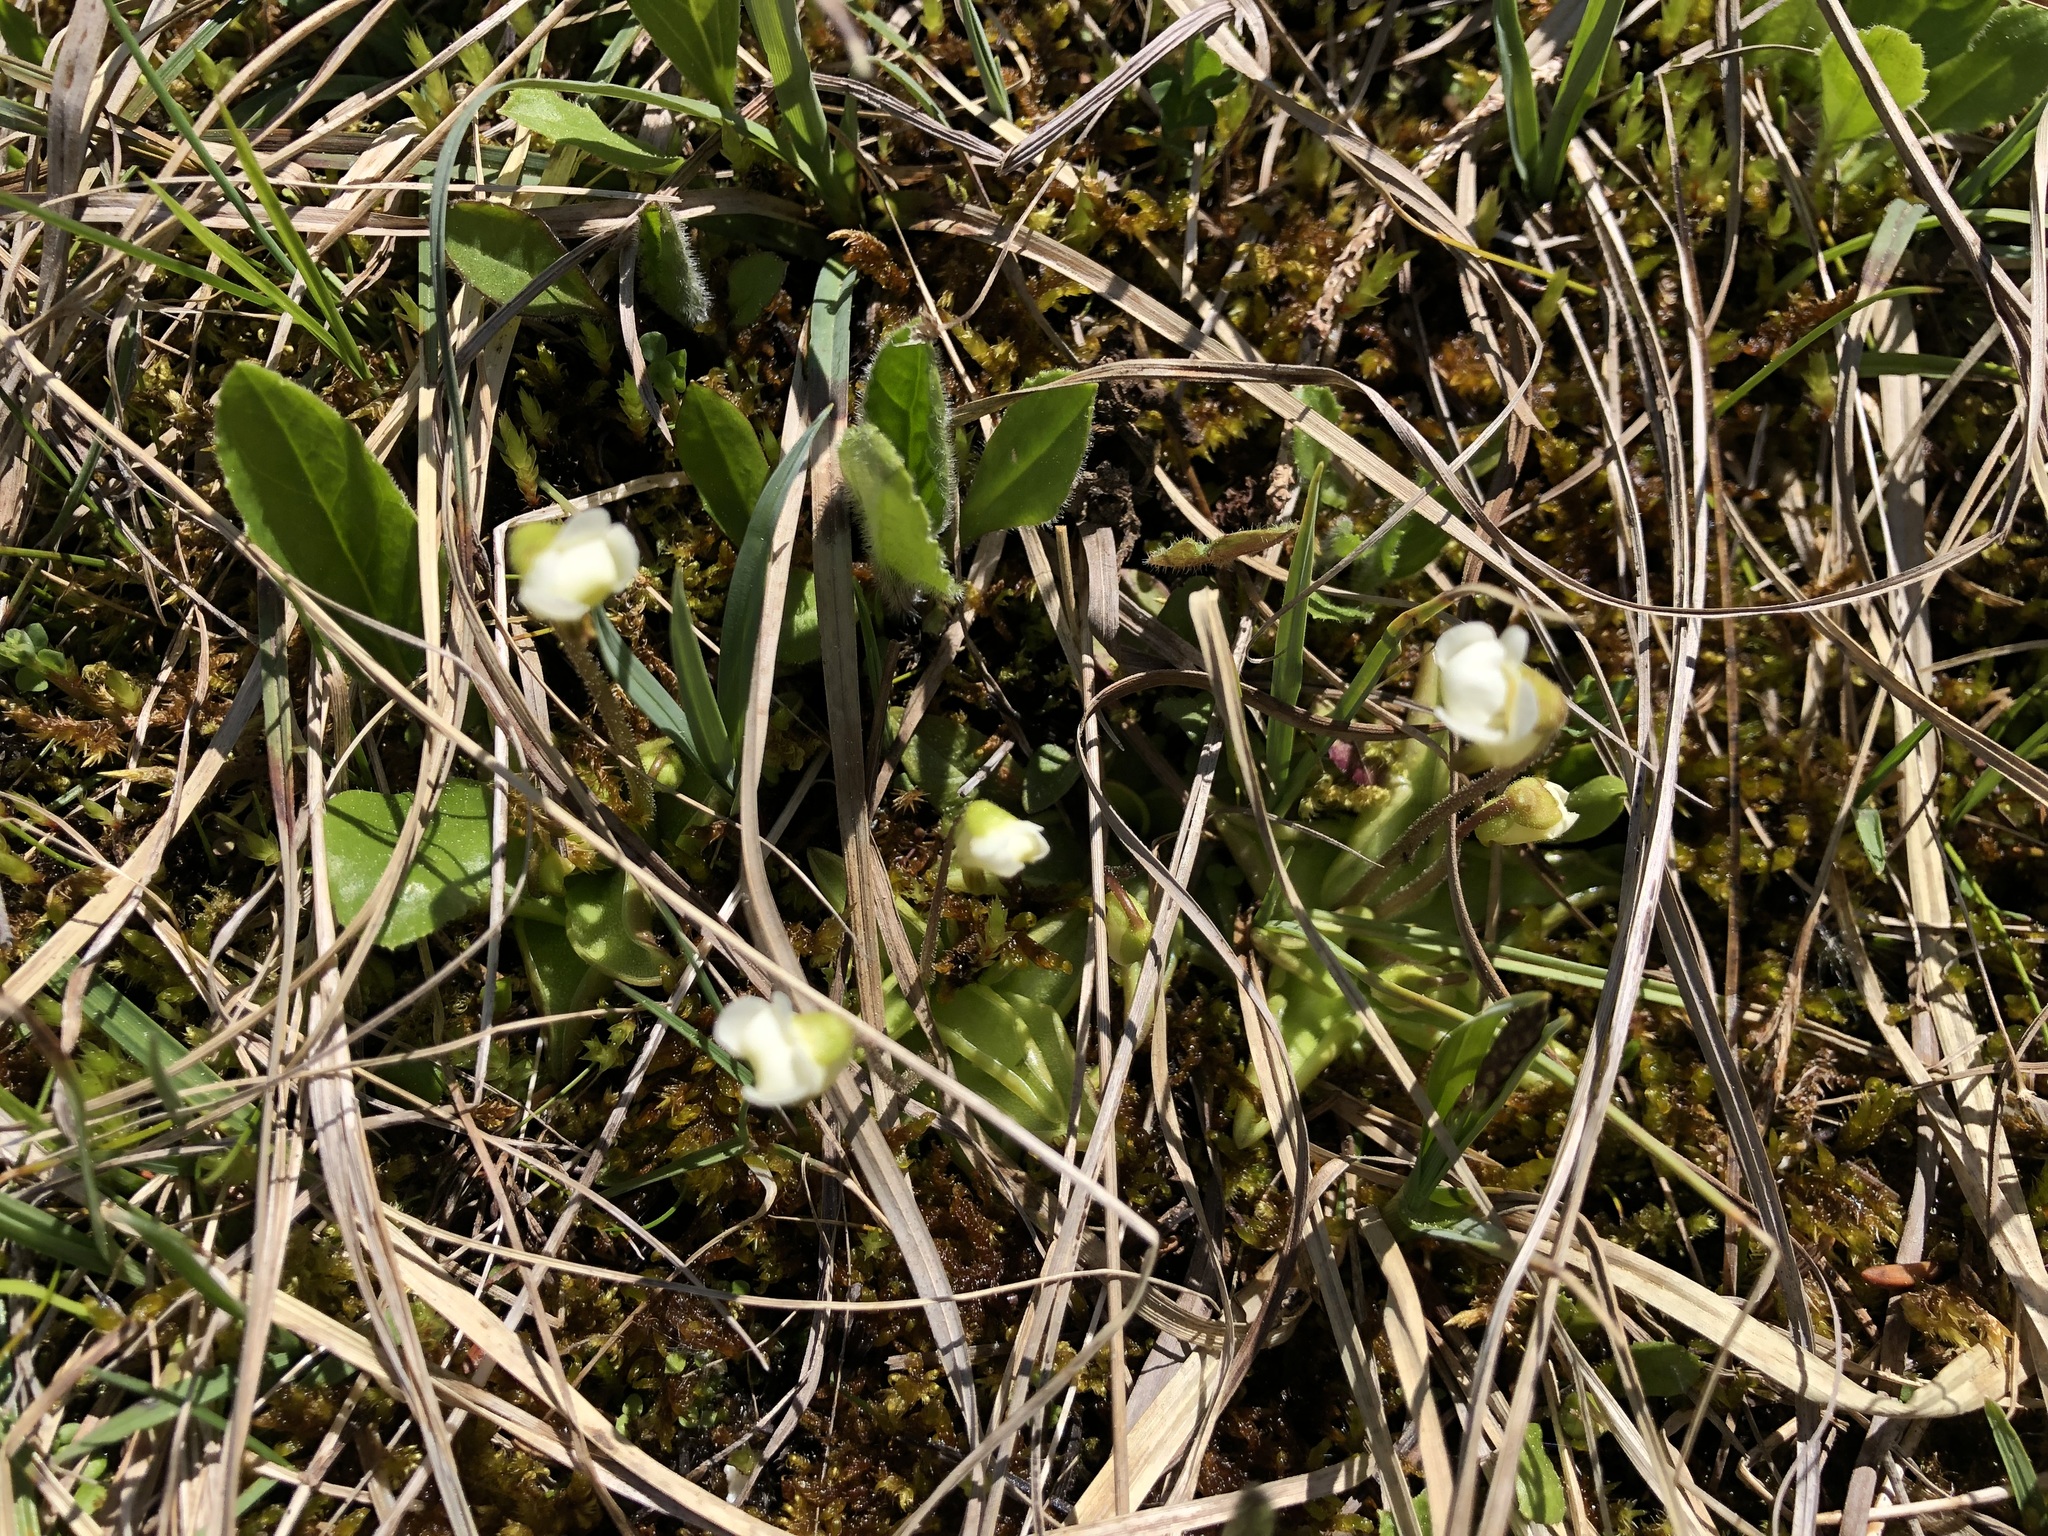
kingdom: Plantae
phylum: Tracheophyta
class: Magnoliopsida
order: Lamiales
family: Lentibulariaceae
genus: Pinguicula
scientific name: Pinguicula alpina
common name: Alpine butterwort
